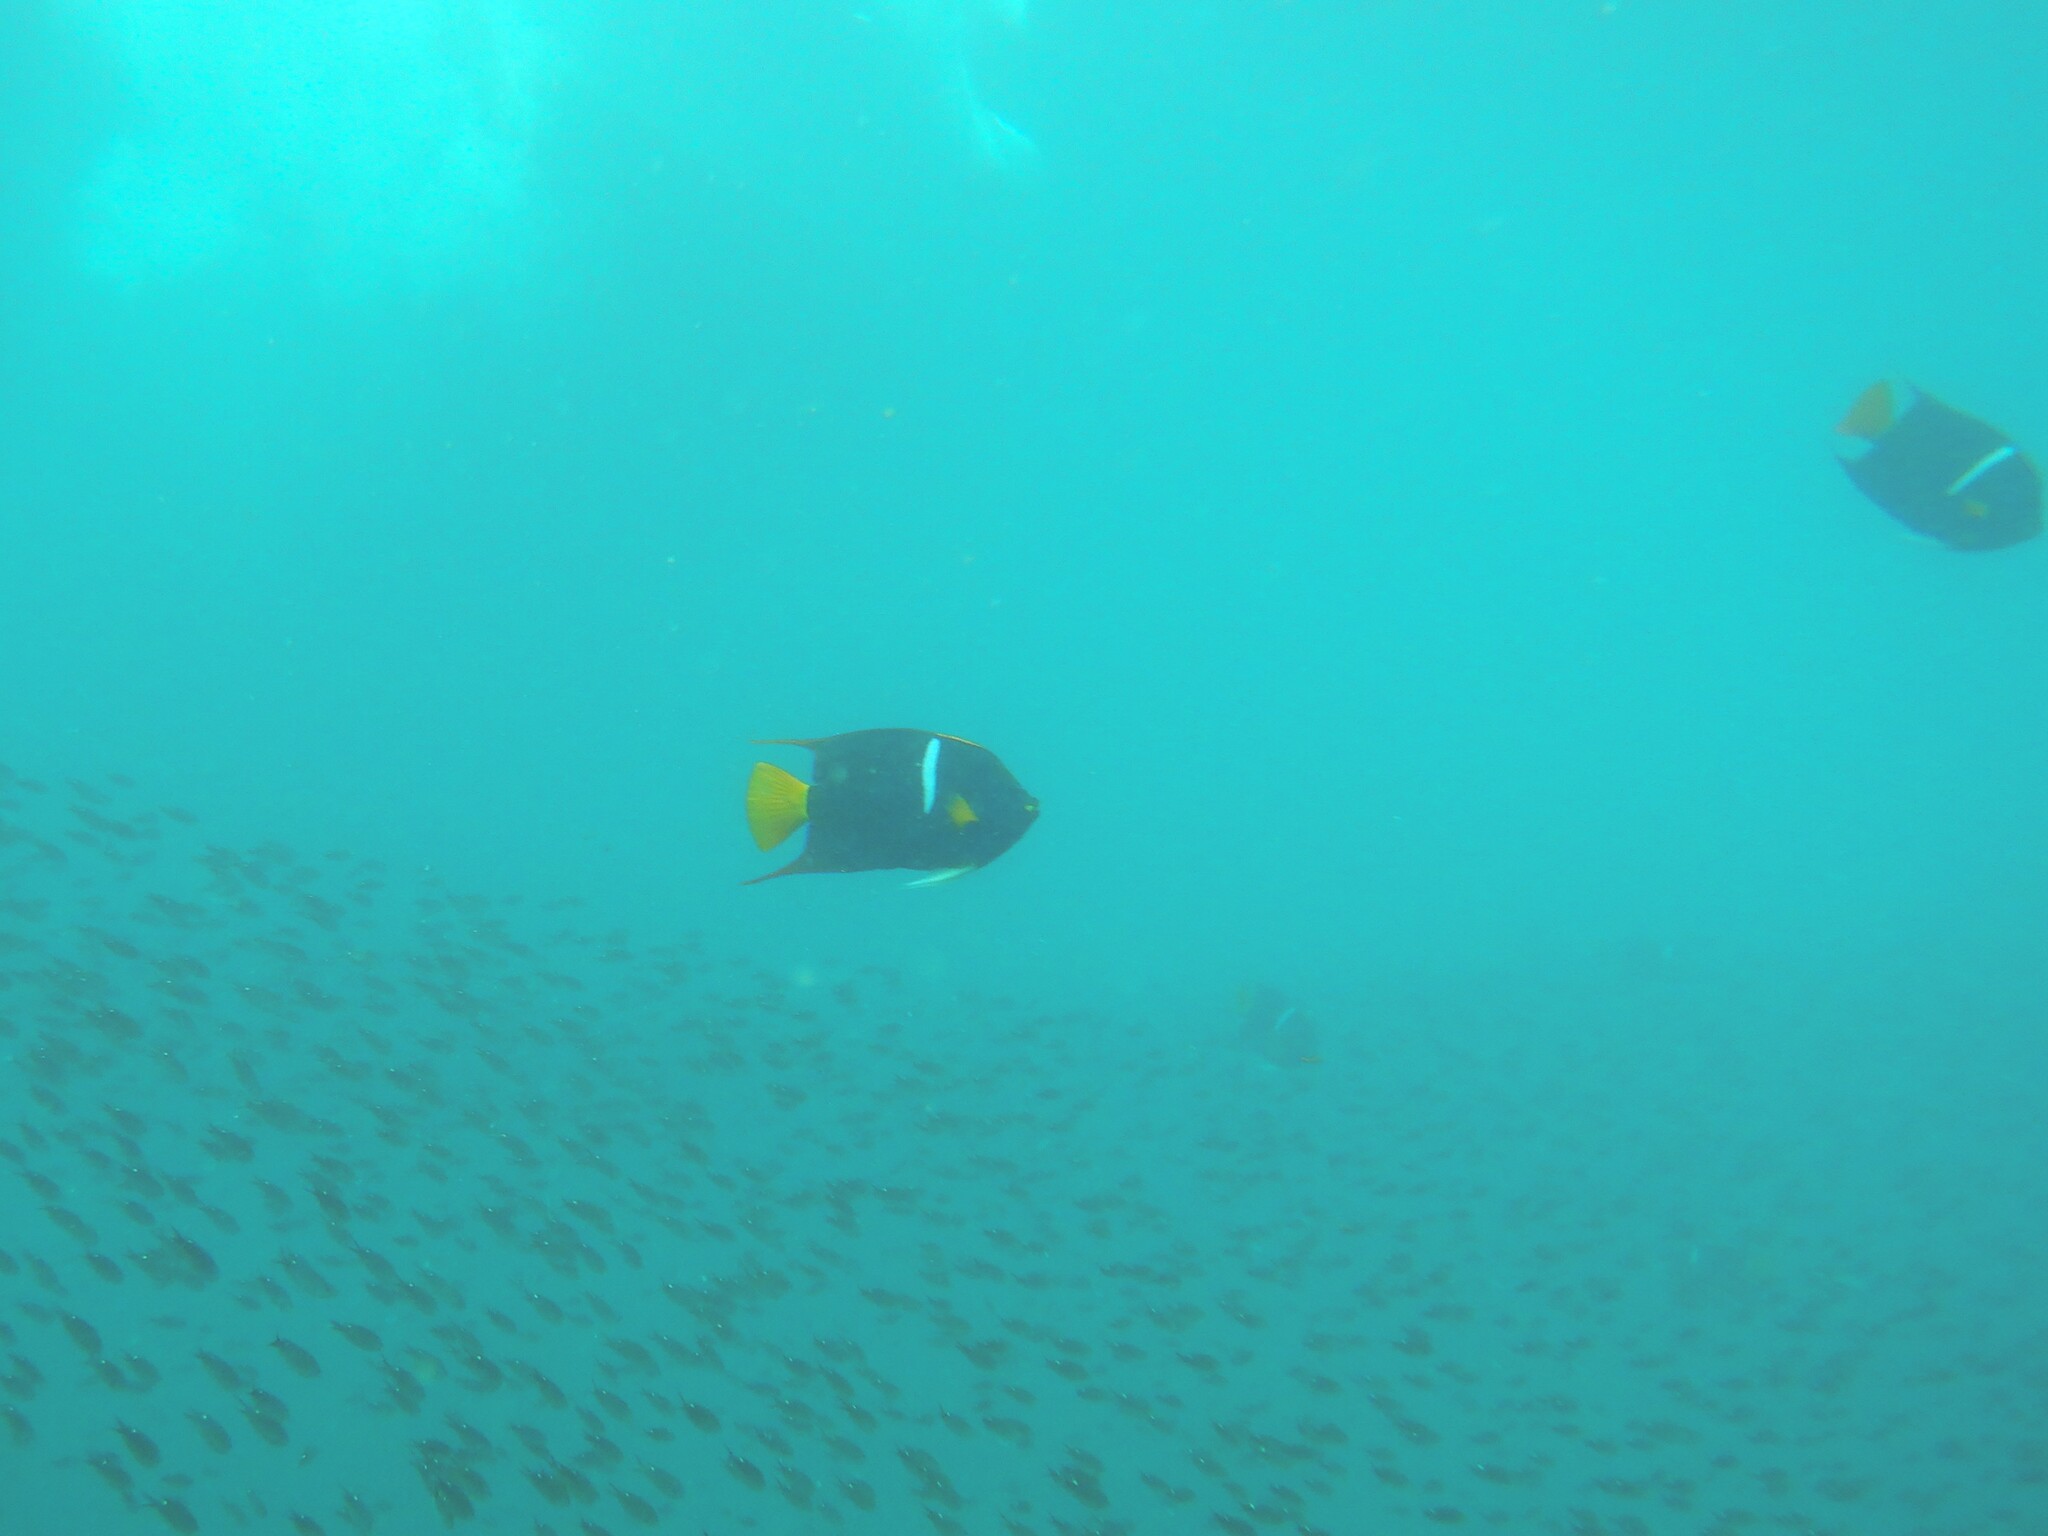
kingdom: Animalia
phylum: Chordata
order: Perciformes
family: Pomacanthidae
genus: Holacanthus
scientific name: Holacanthus passer
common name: King angelfish
